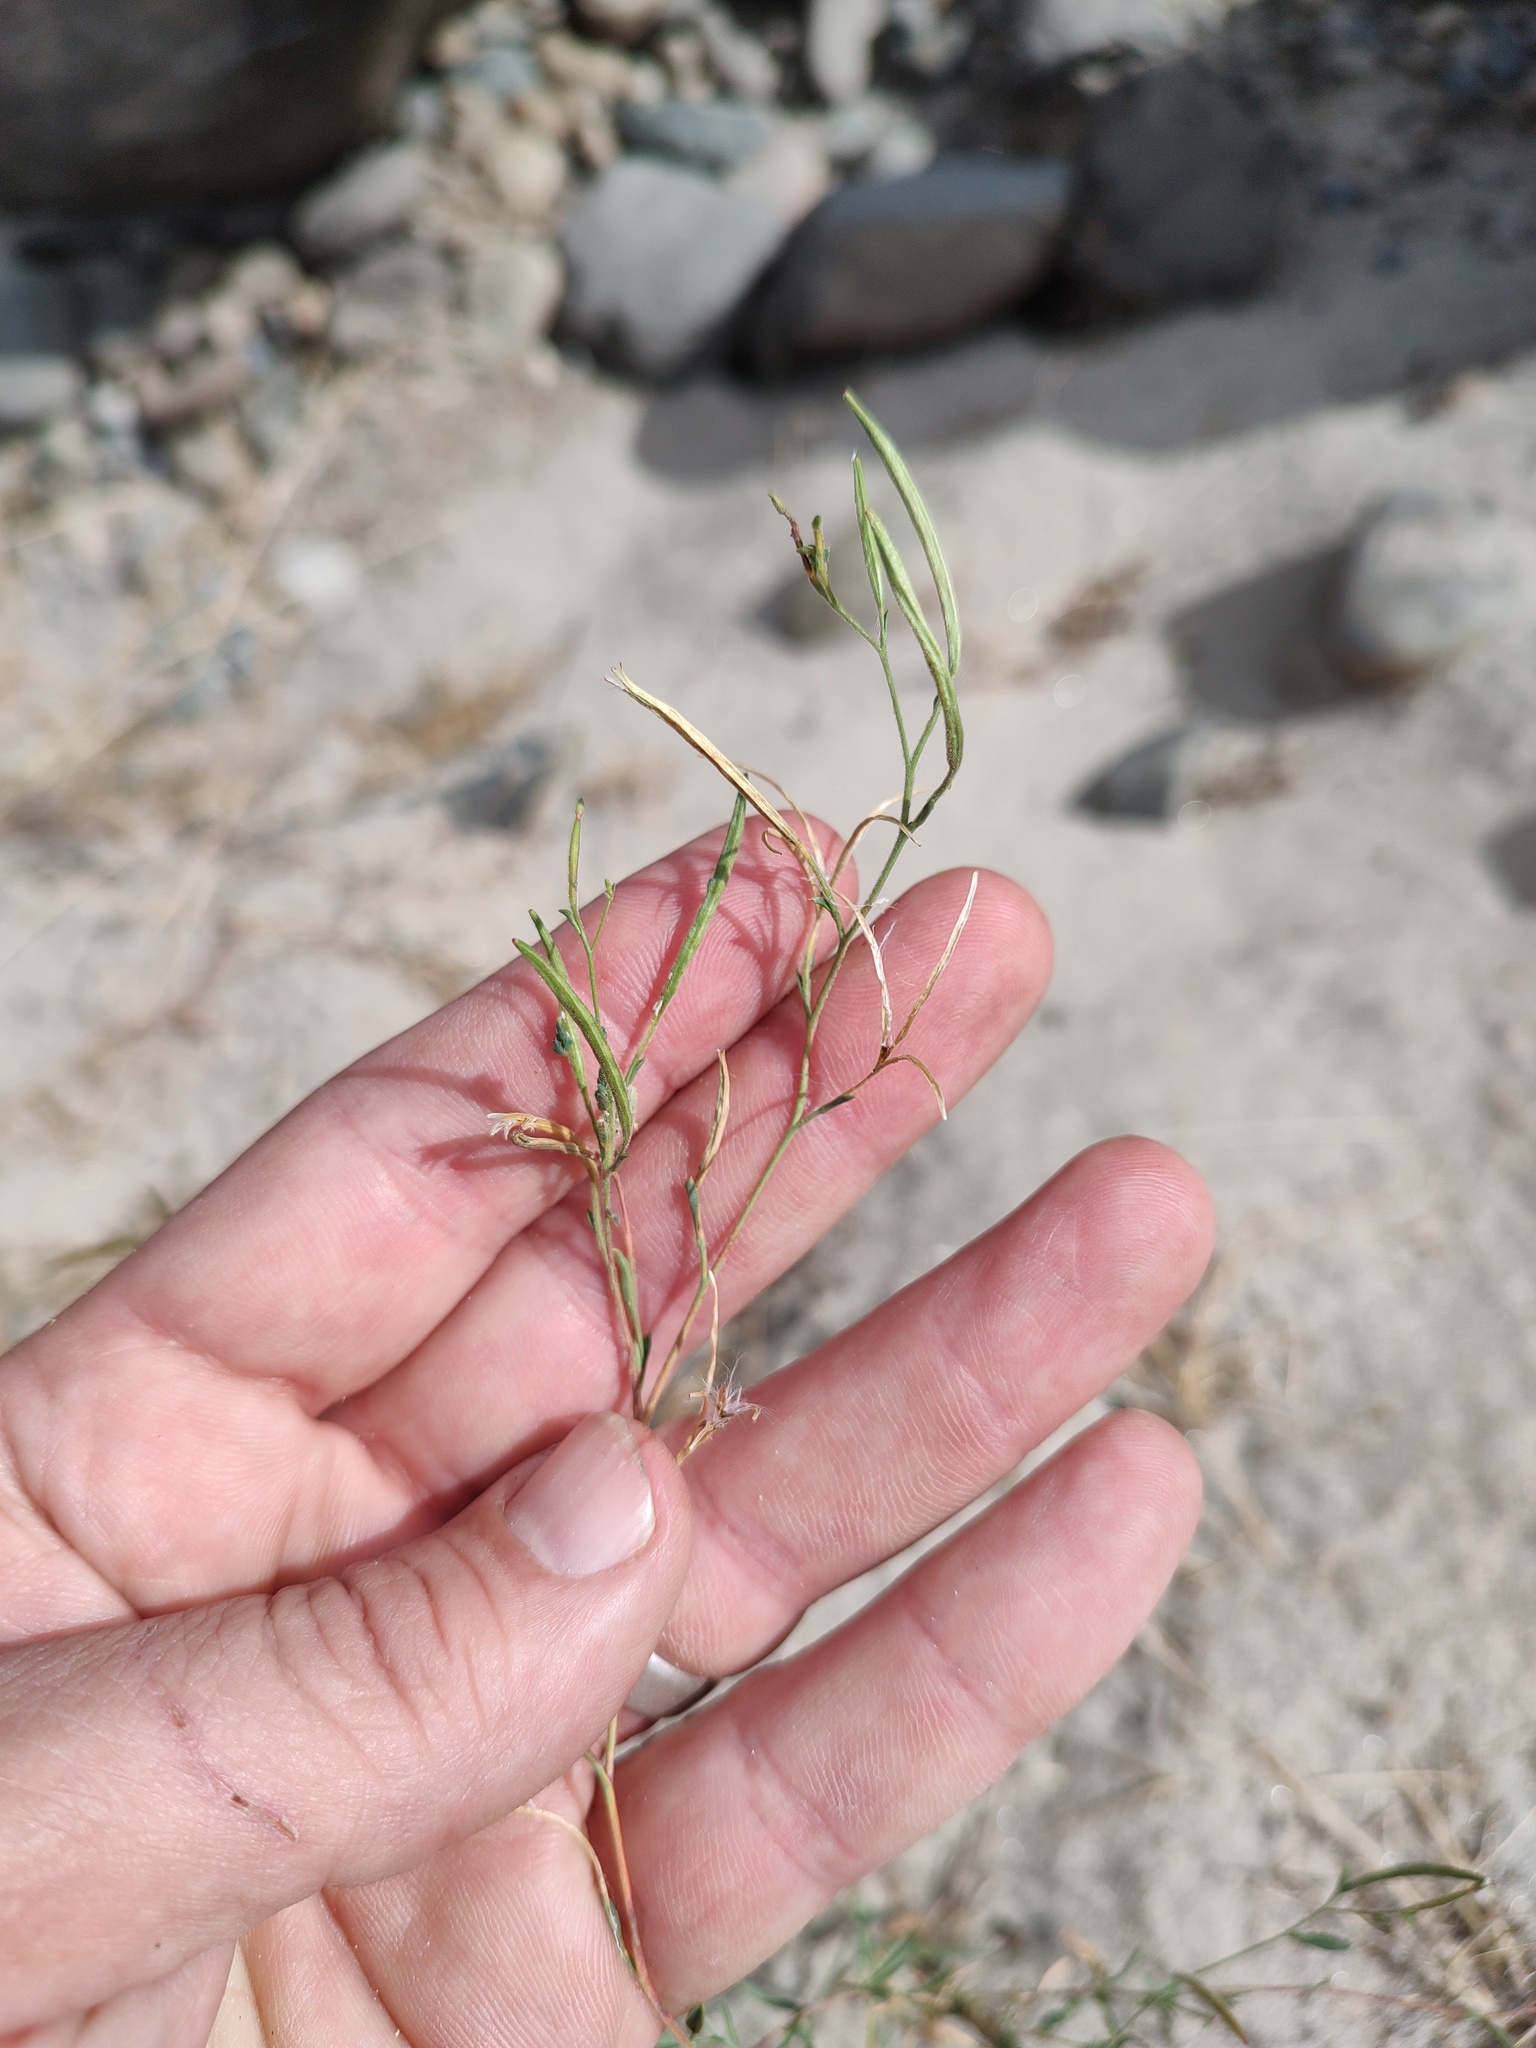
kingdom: Plantae
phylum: Tracheophyta
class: Magnoliopsida
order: Myrtales
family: Onagraceae
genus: Epilobium
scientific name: Epilobium brachycarpum
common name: Annual willowherb
